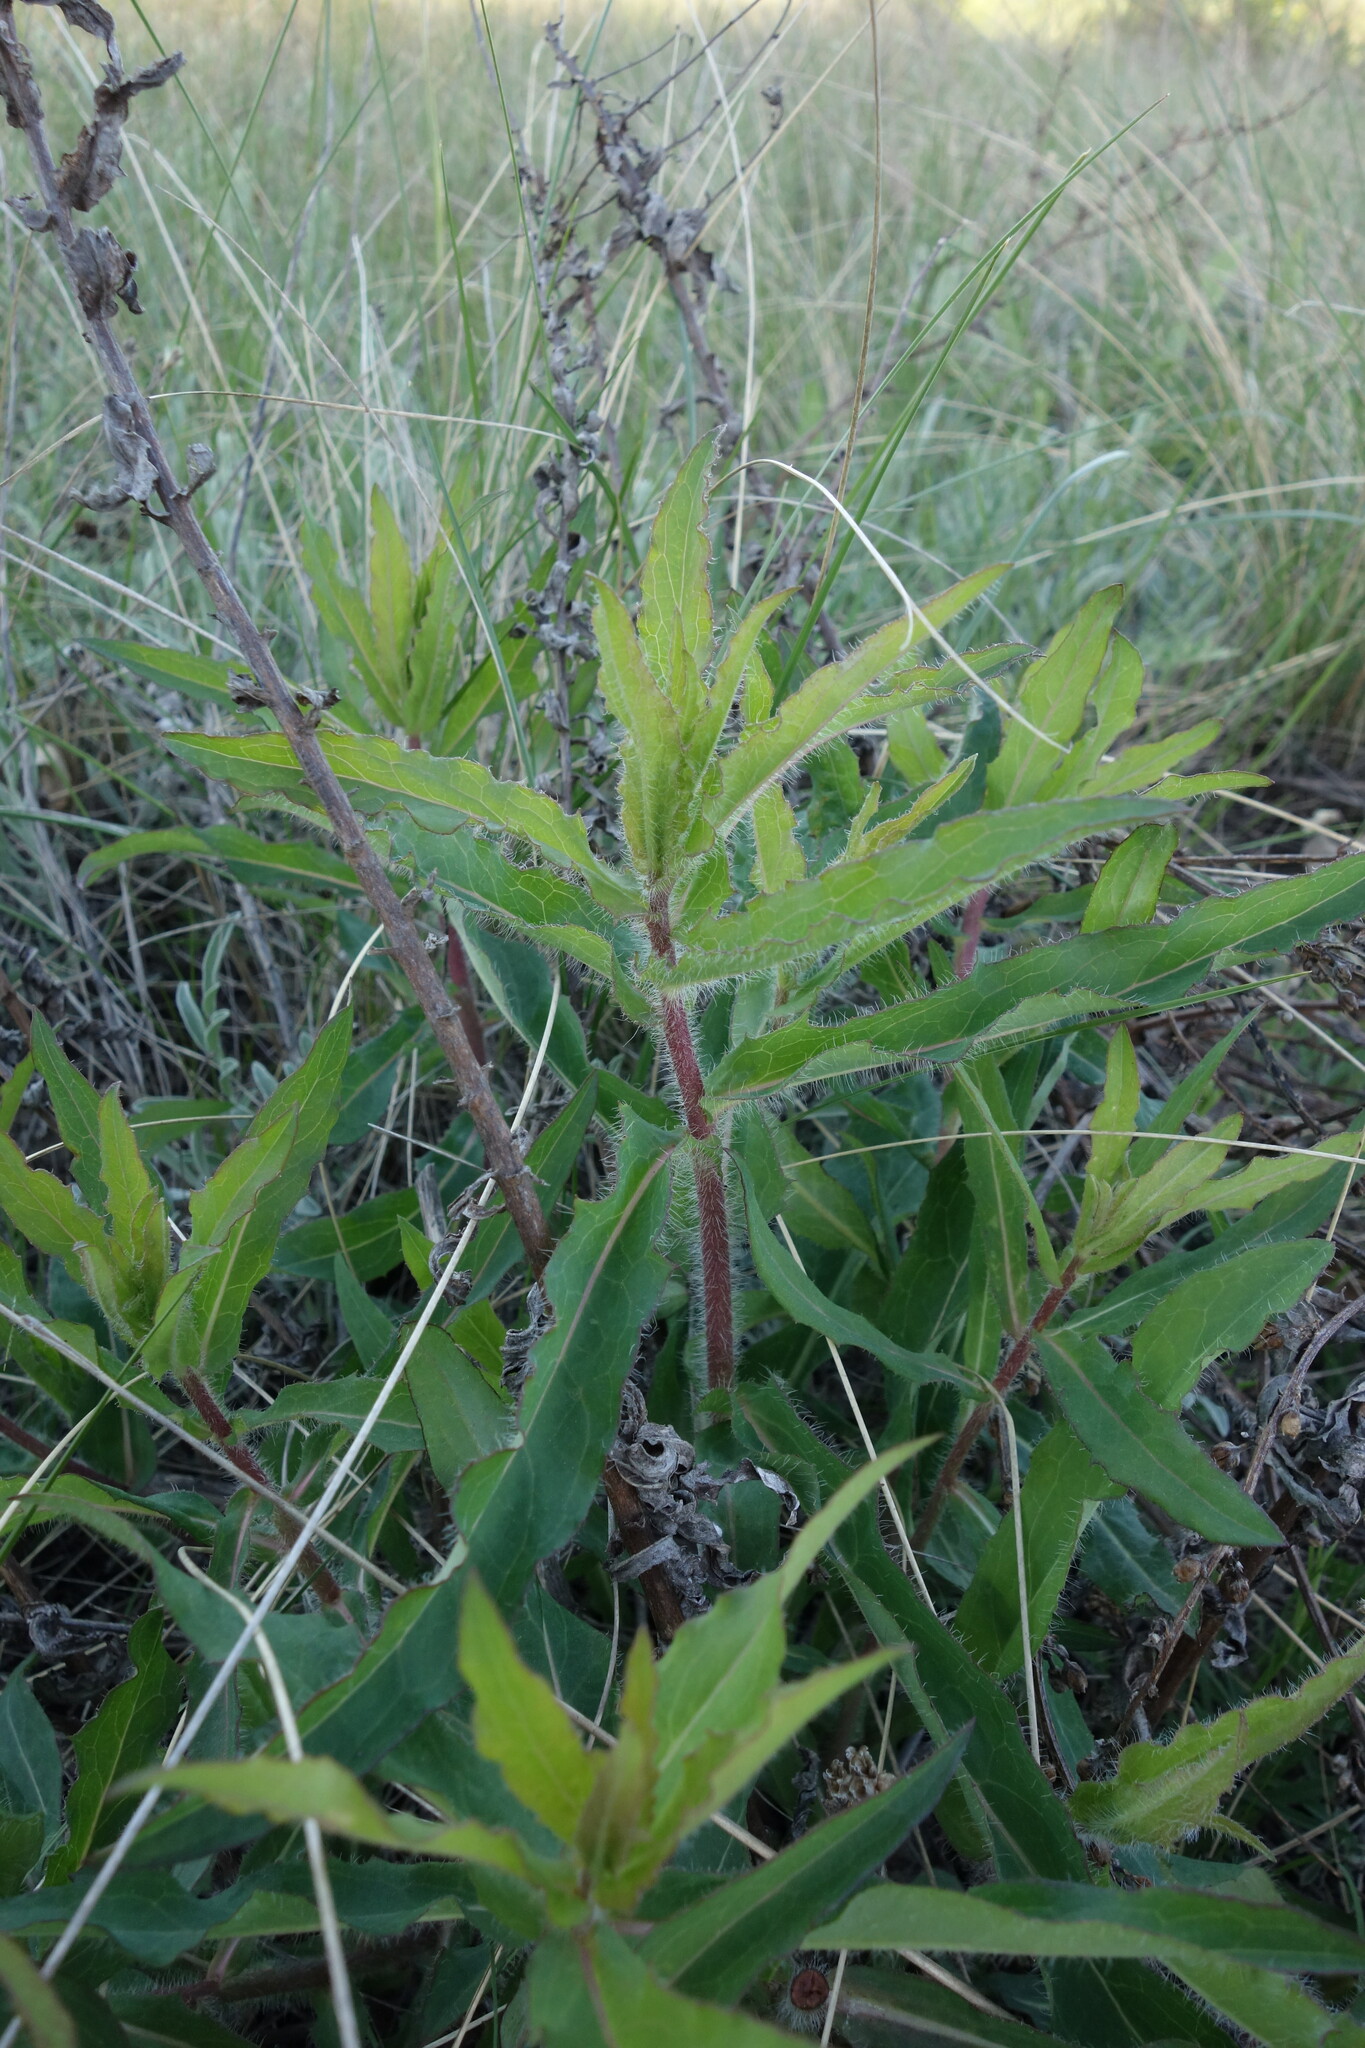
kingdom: Plantae
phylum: Tracheophyta
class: Magnoliopsida
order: Asterales
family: Asteraceae
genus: Hieracium
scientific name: Hieracium virosum
